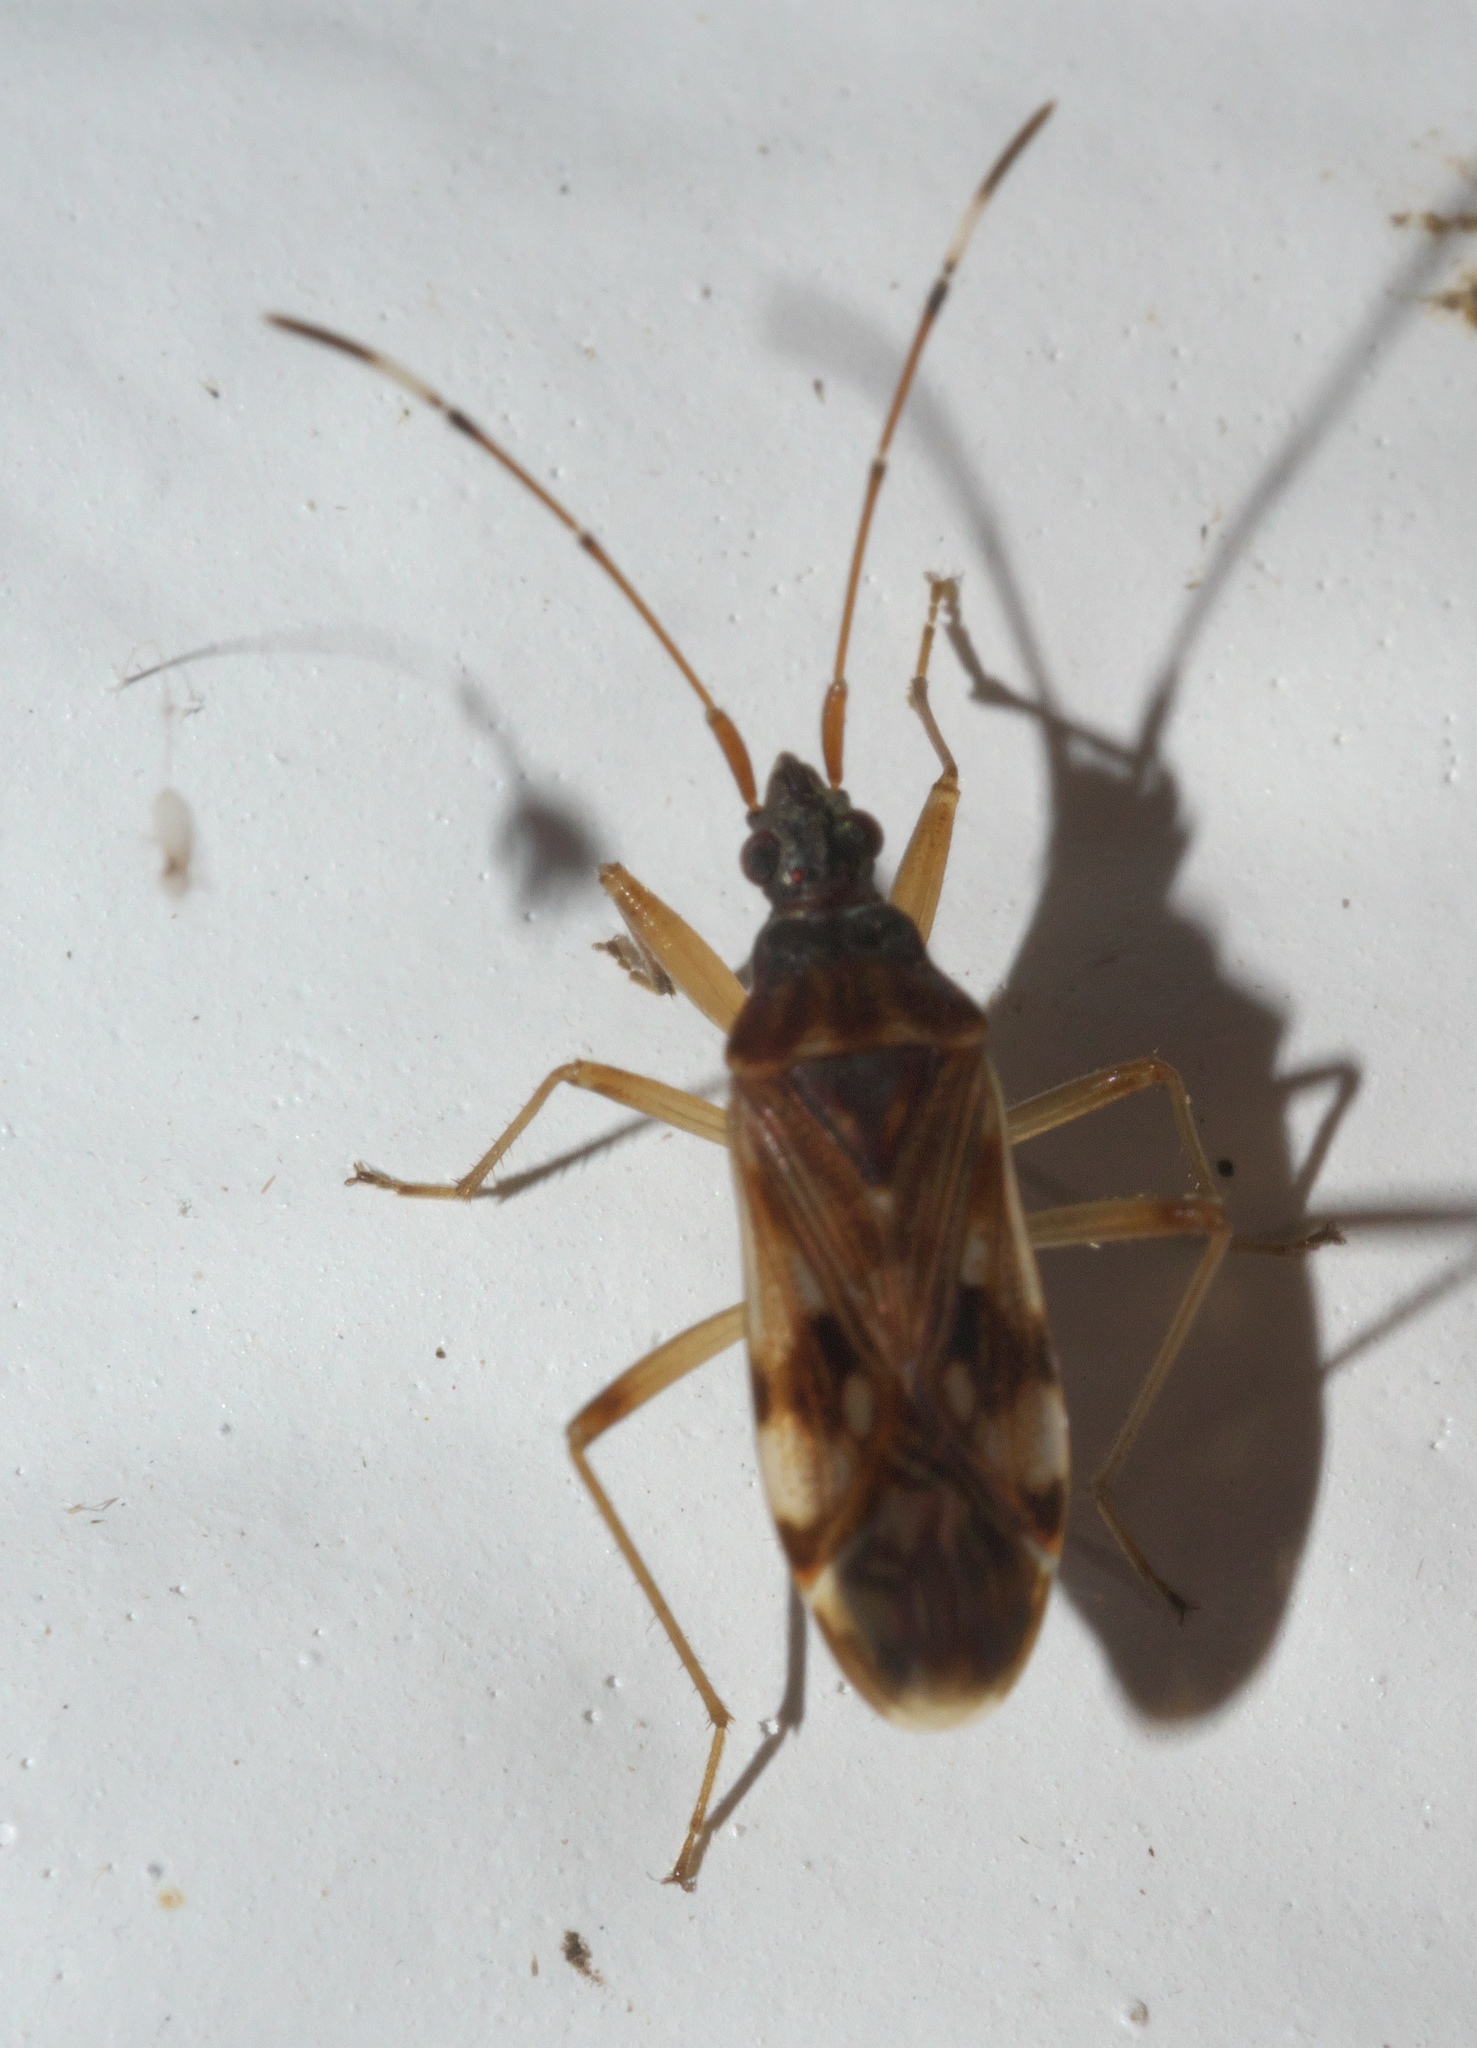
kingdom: Animalia
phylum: Arthropoda
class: Insecta
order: Hemiptera
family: Rhyparochromidae
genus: Ozophora
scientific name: Ozophora picturata
